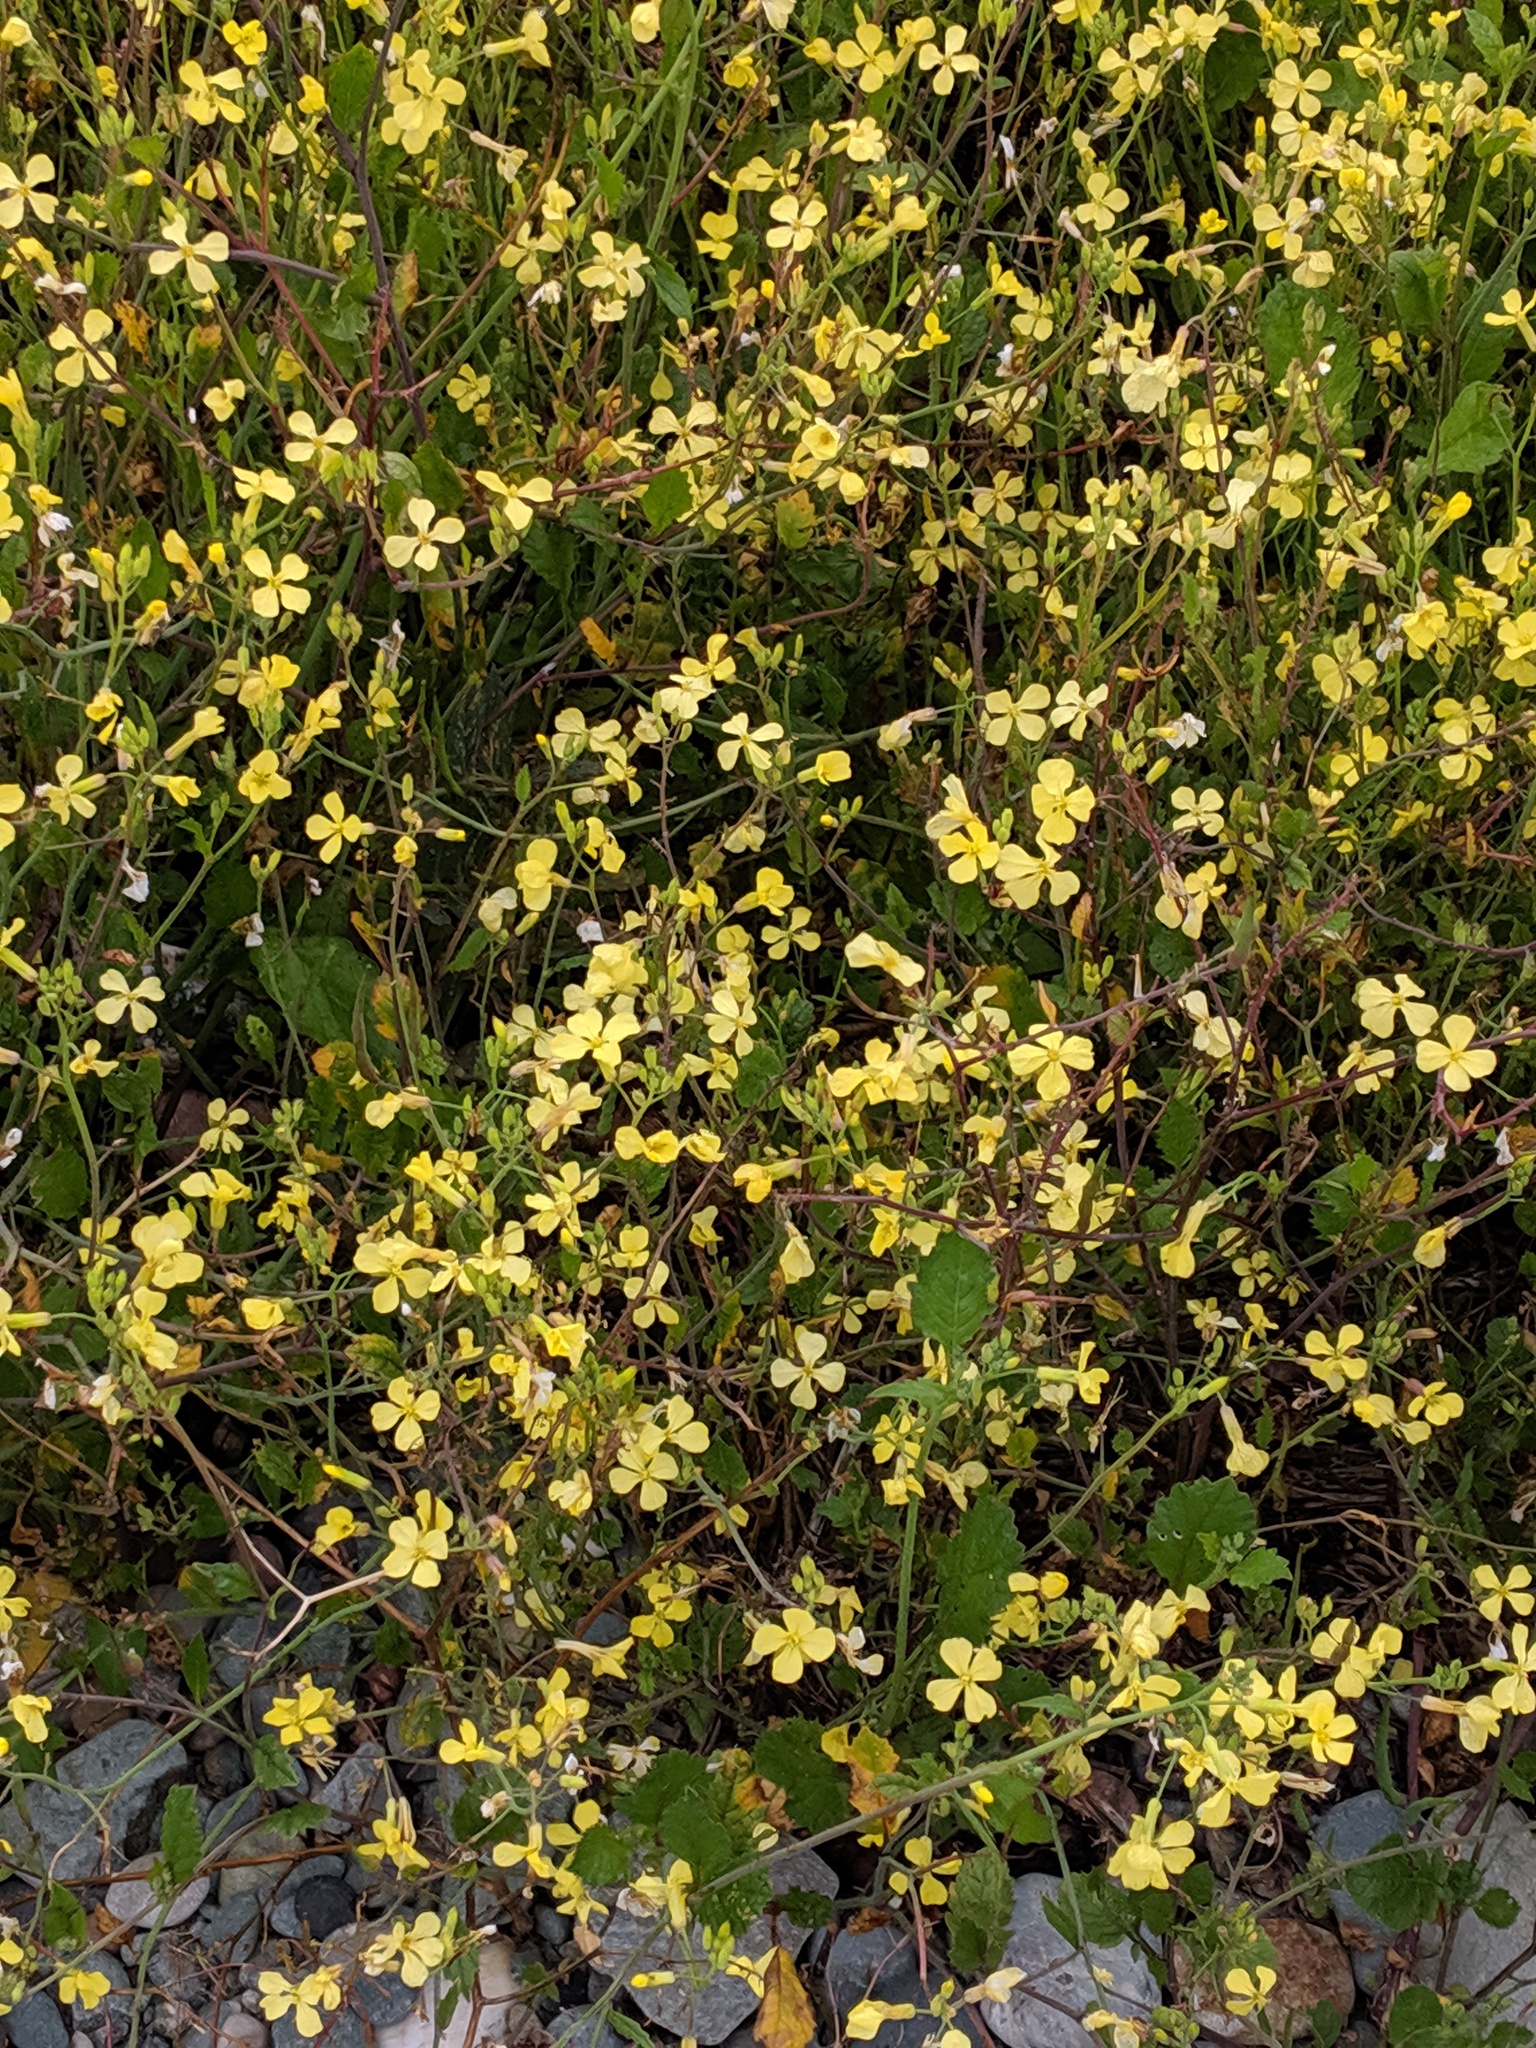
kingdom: Plantae
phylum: Tracheophyta
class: Magnoliopsida
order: Brassicales
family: Brassicaceae
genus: Raphanus
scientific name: Raphanus raphanistrum
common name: Wild radish
